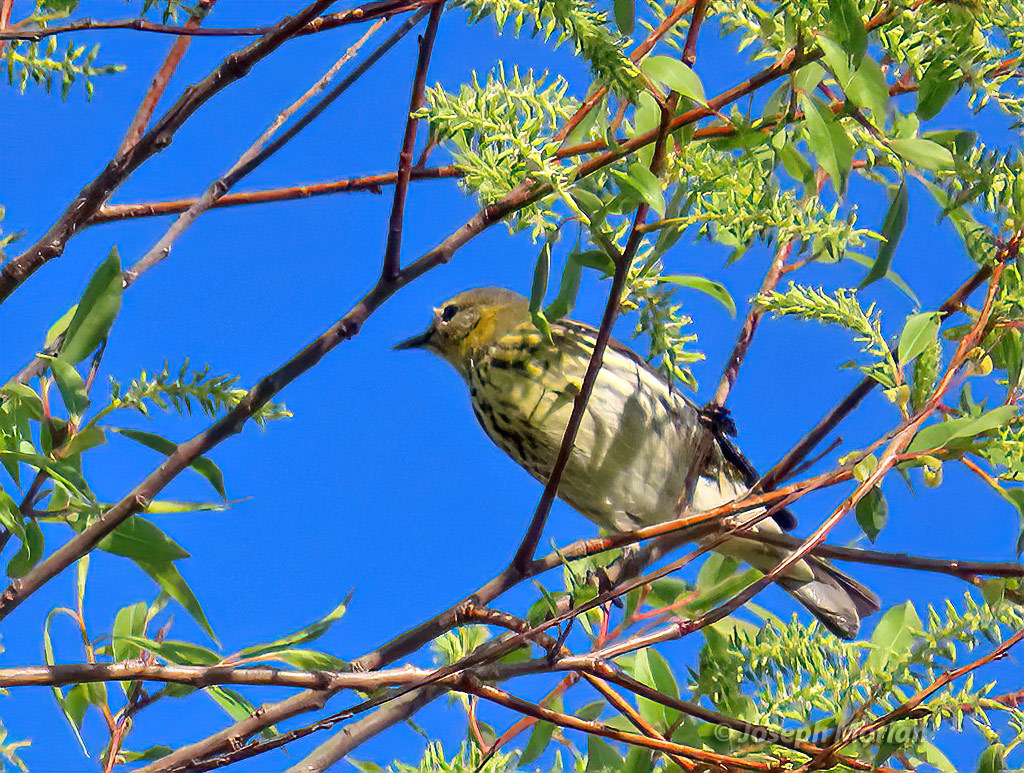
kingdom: Animalia
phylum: Chordata
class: Aves
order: Passeriformes
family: Parulidae
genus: Setophaga
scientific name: Setophaga tigrina
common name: Cape may warbler
